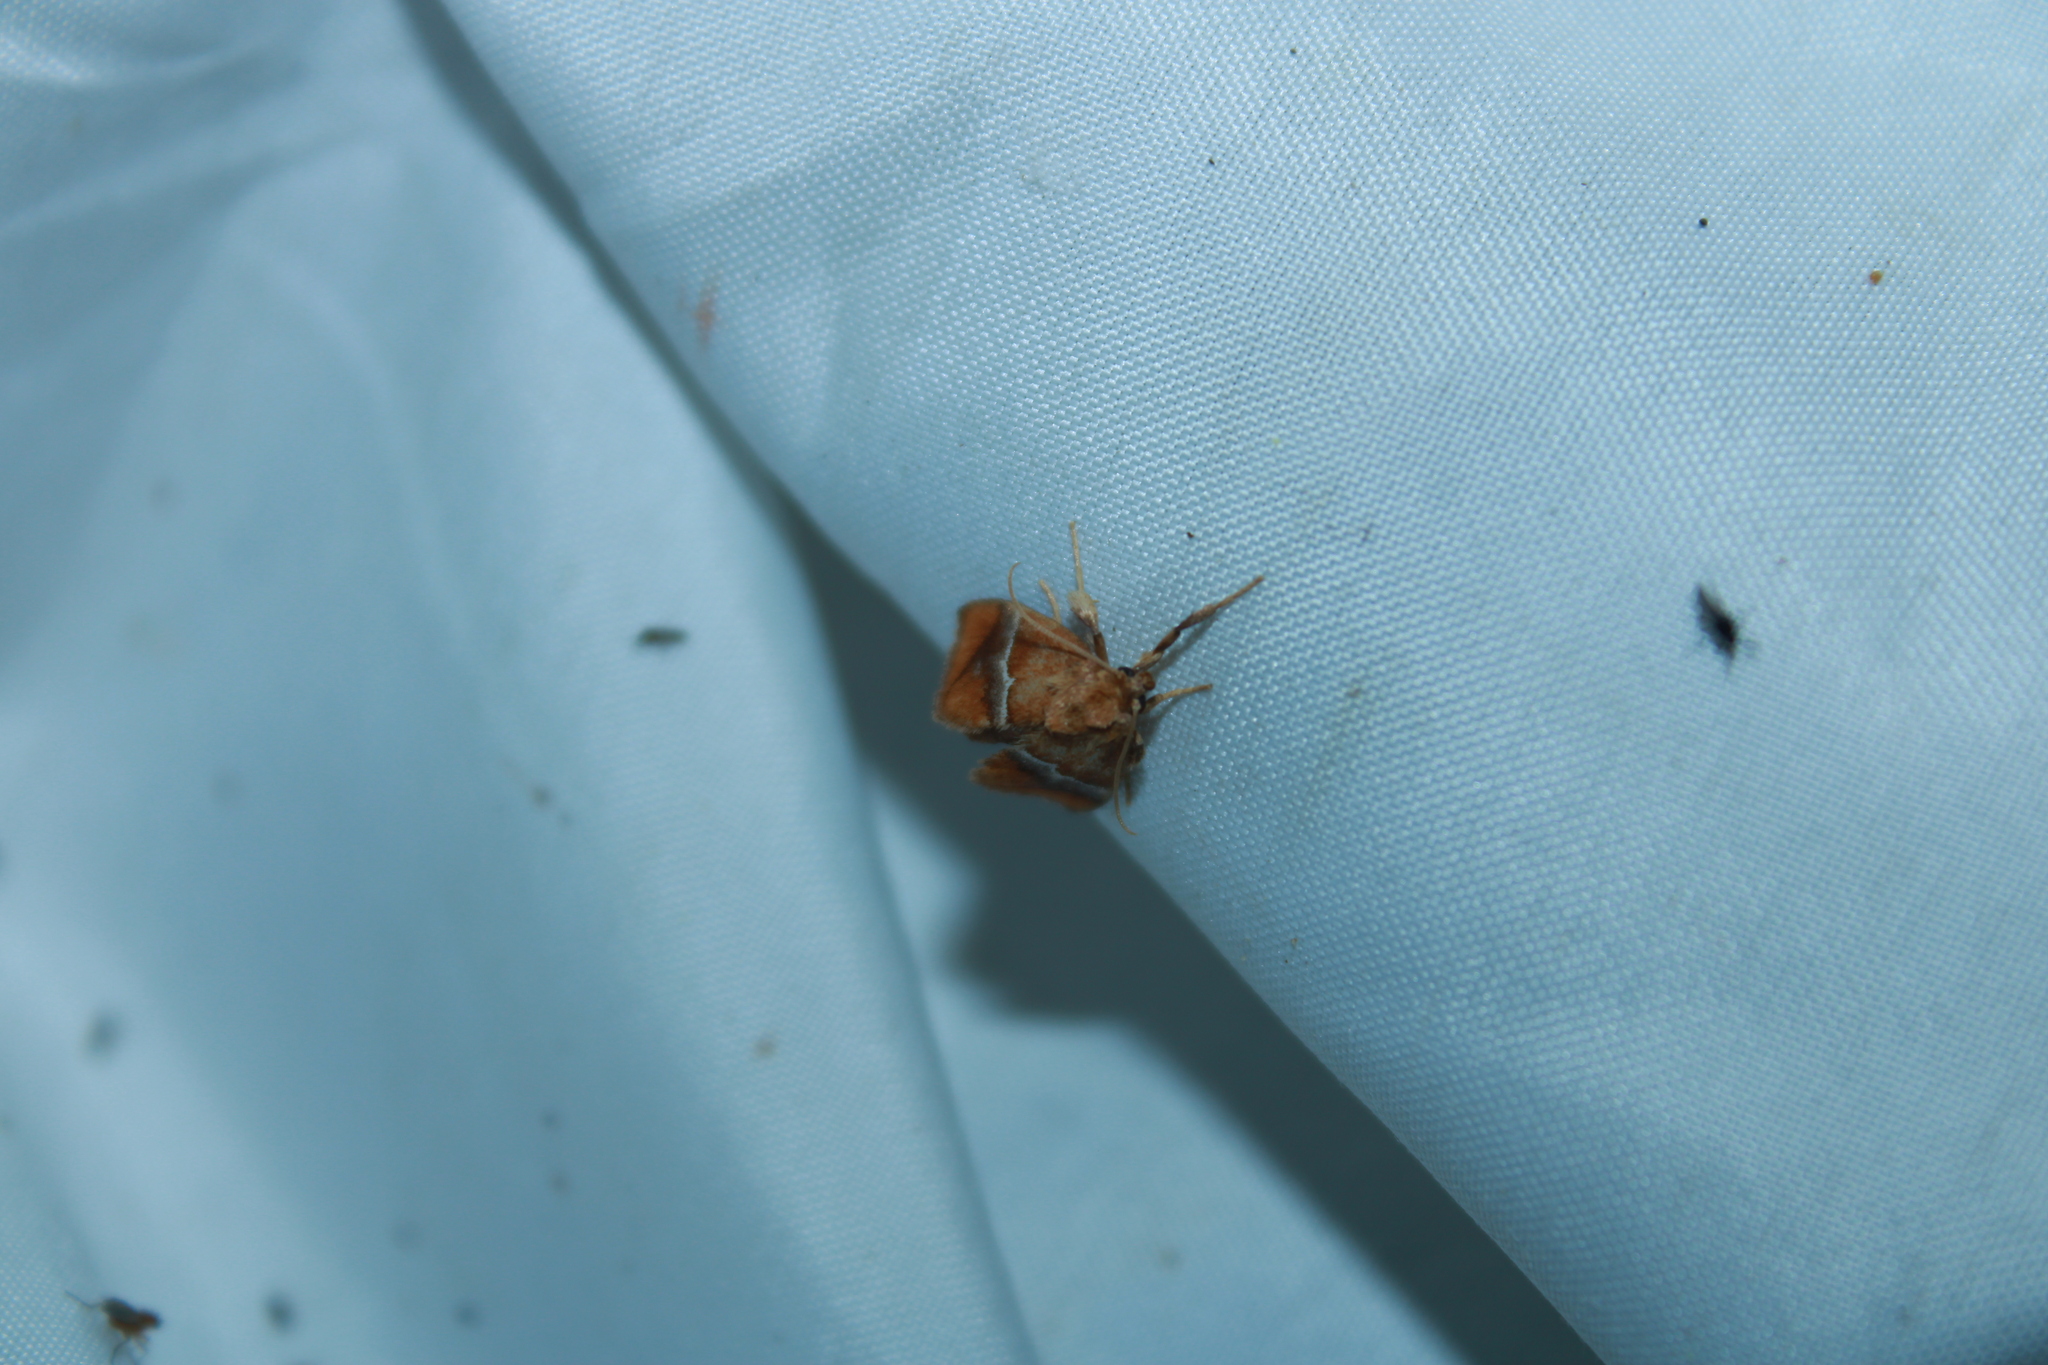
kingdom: Animalia
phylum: Arthropoda
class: Insecta
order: Lepidoptera
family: Limacodidae
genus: Lithacodes
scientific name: Lithacodes fasciola
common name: Yellow-shouldered slug moth
